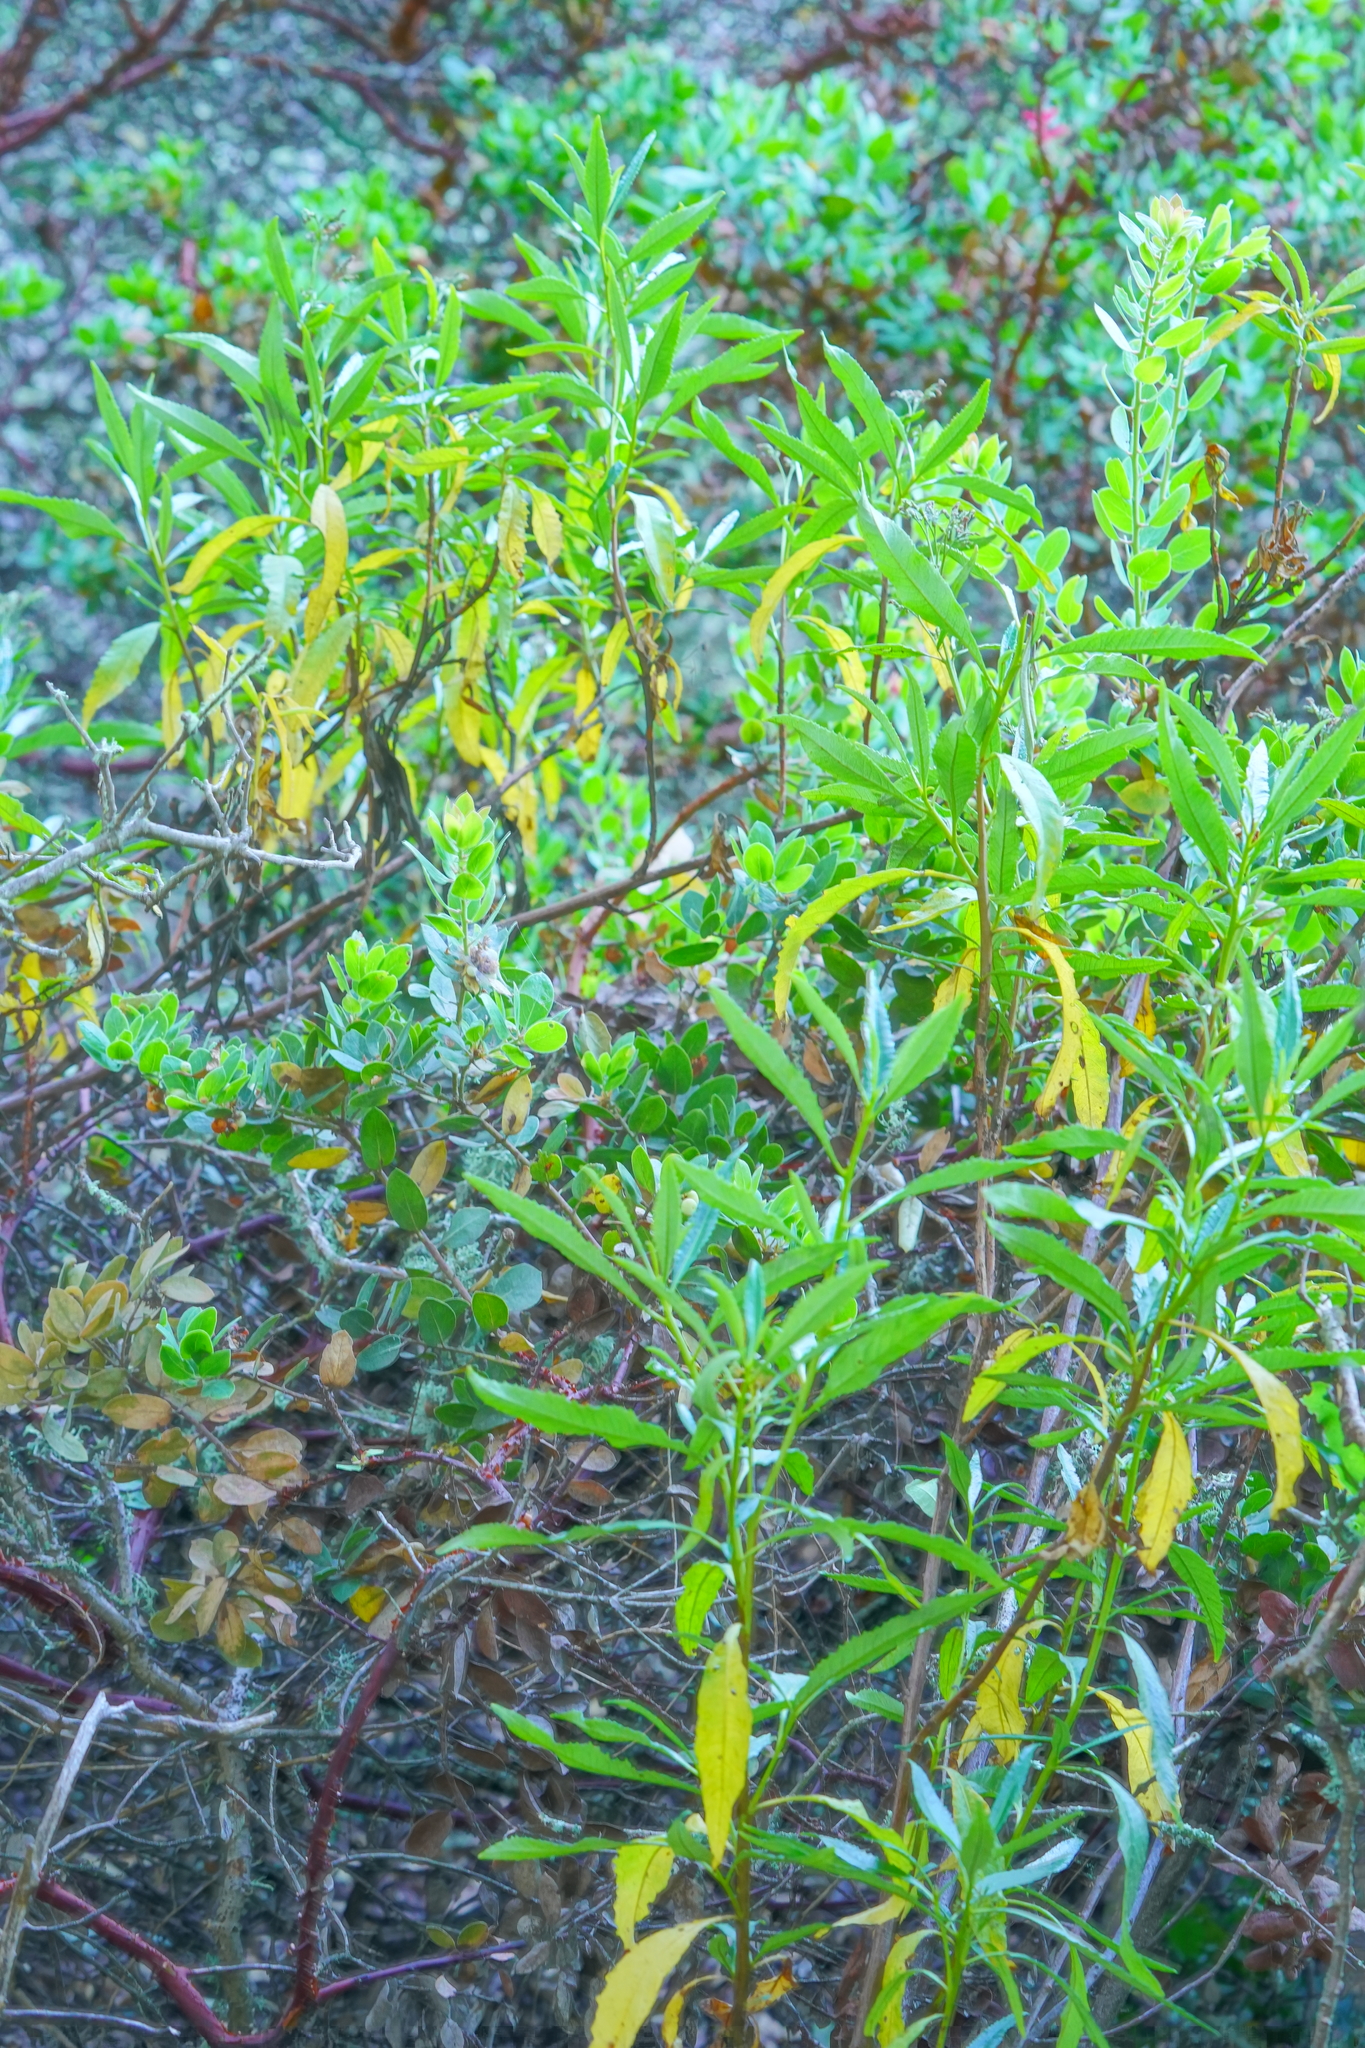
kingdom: Plantae
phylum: Tracheophyta
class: Magnoliopsida
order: Boraginales
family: Namaceae
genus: Eriodictyon
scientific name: Eriodictyon californicum
